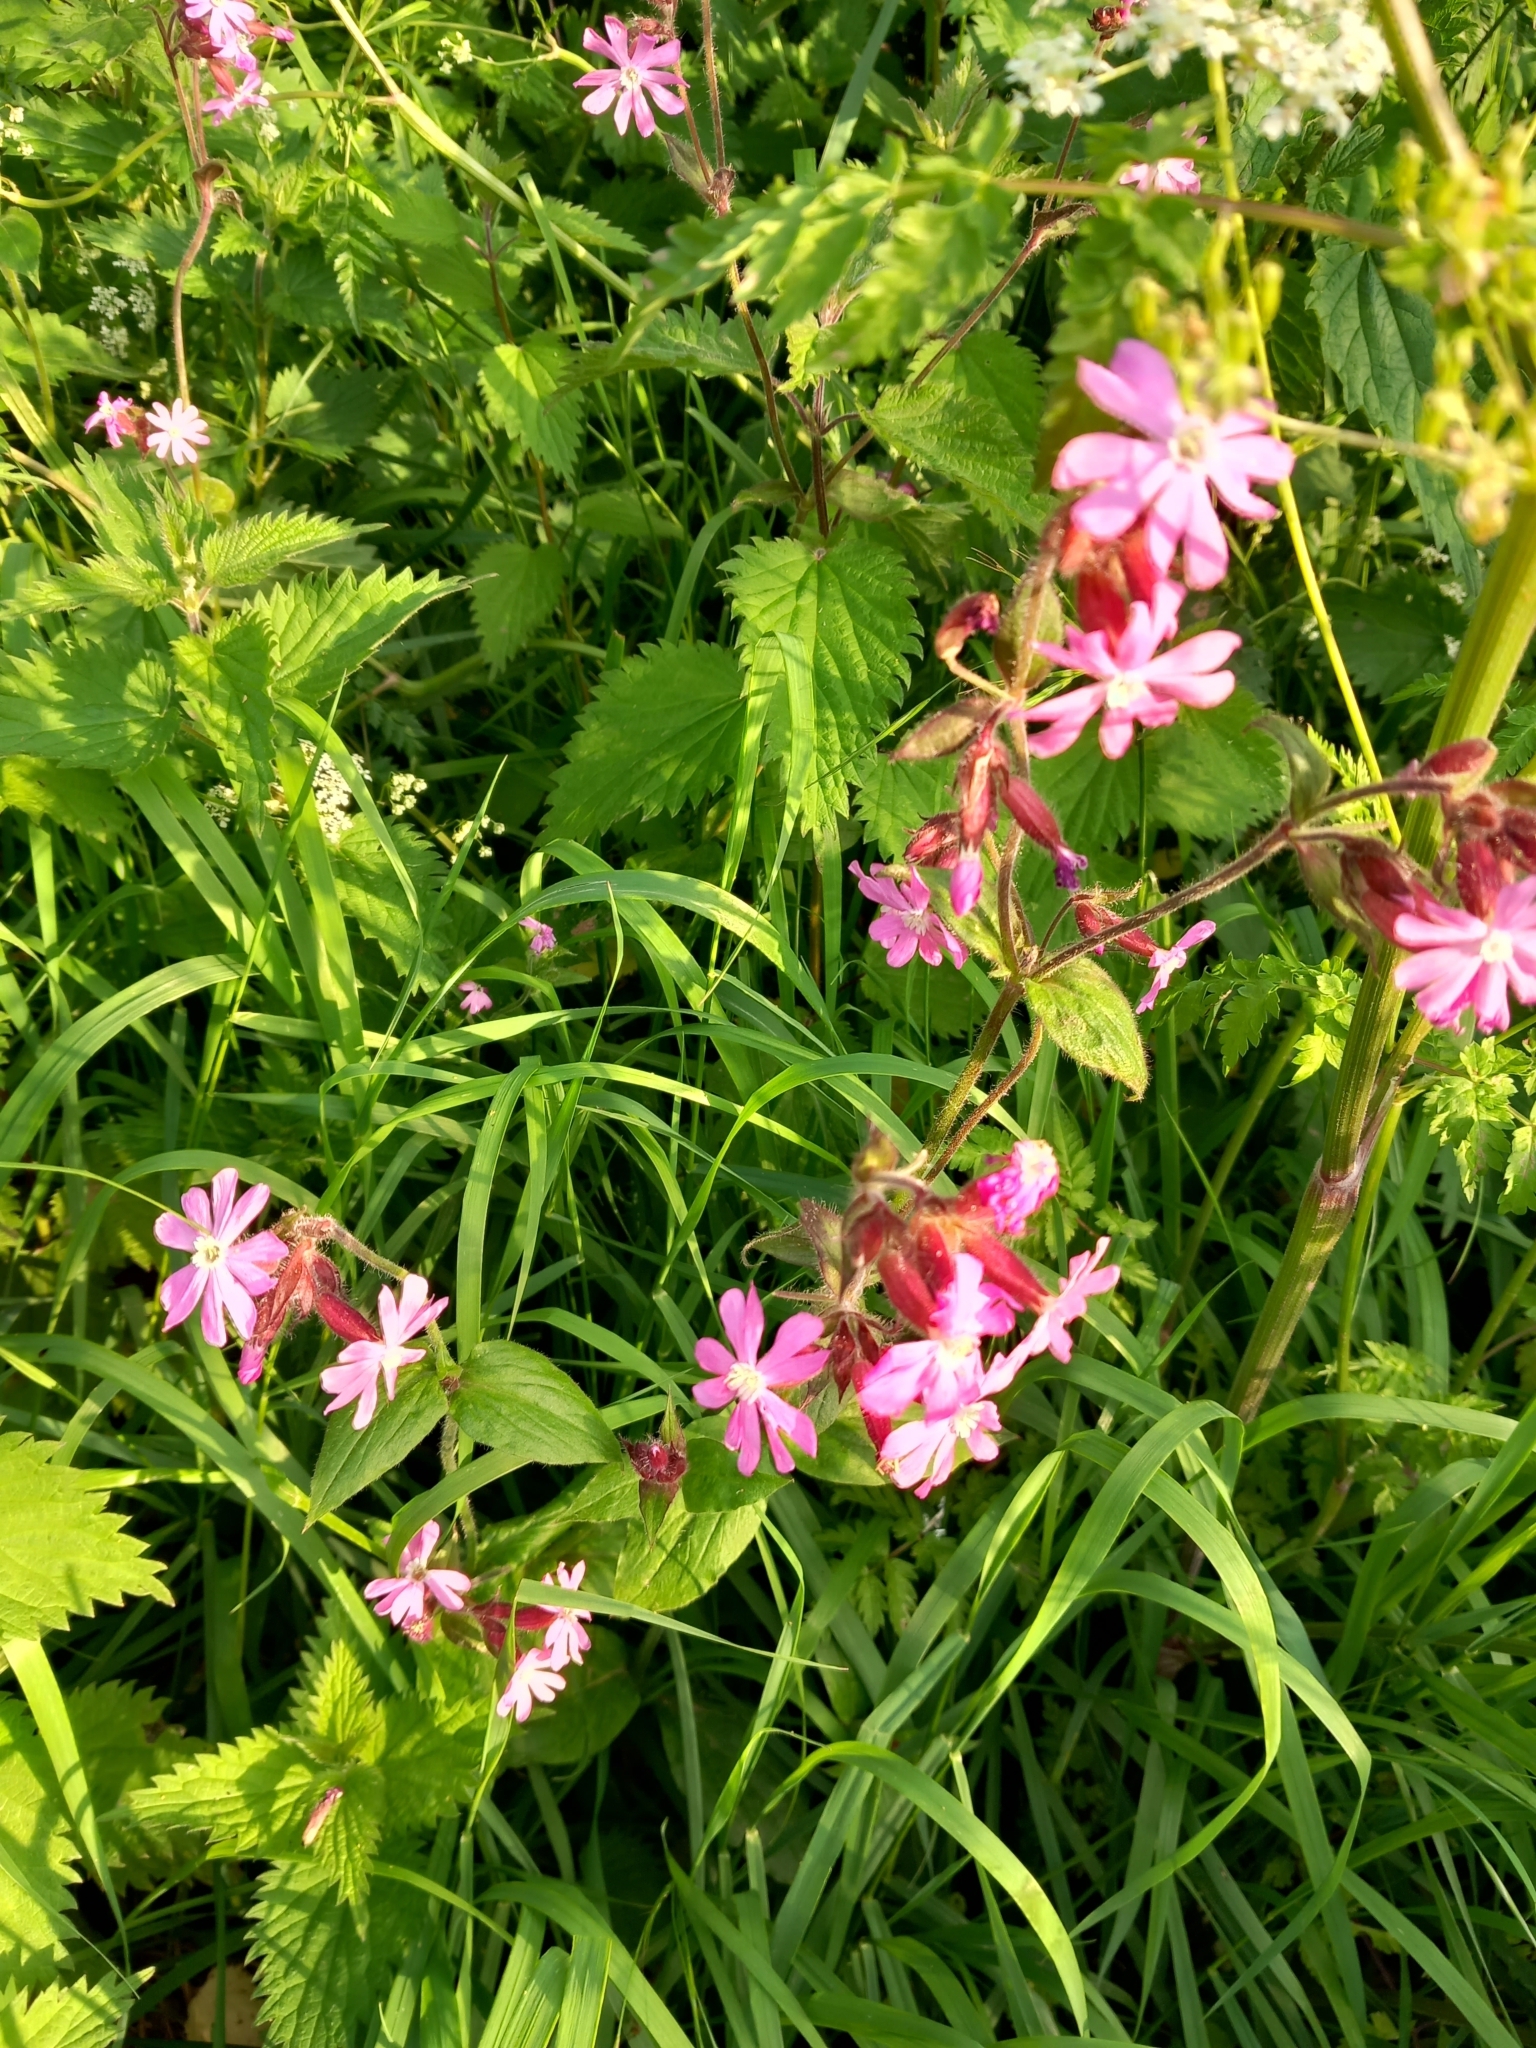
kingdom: Plantae
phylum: Tracheophyta
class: Magnoliopsida
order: Caryophyllales
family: Caryophyllaceae
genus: Silene
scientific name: Silene dioica
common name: Red campion
